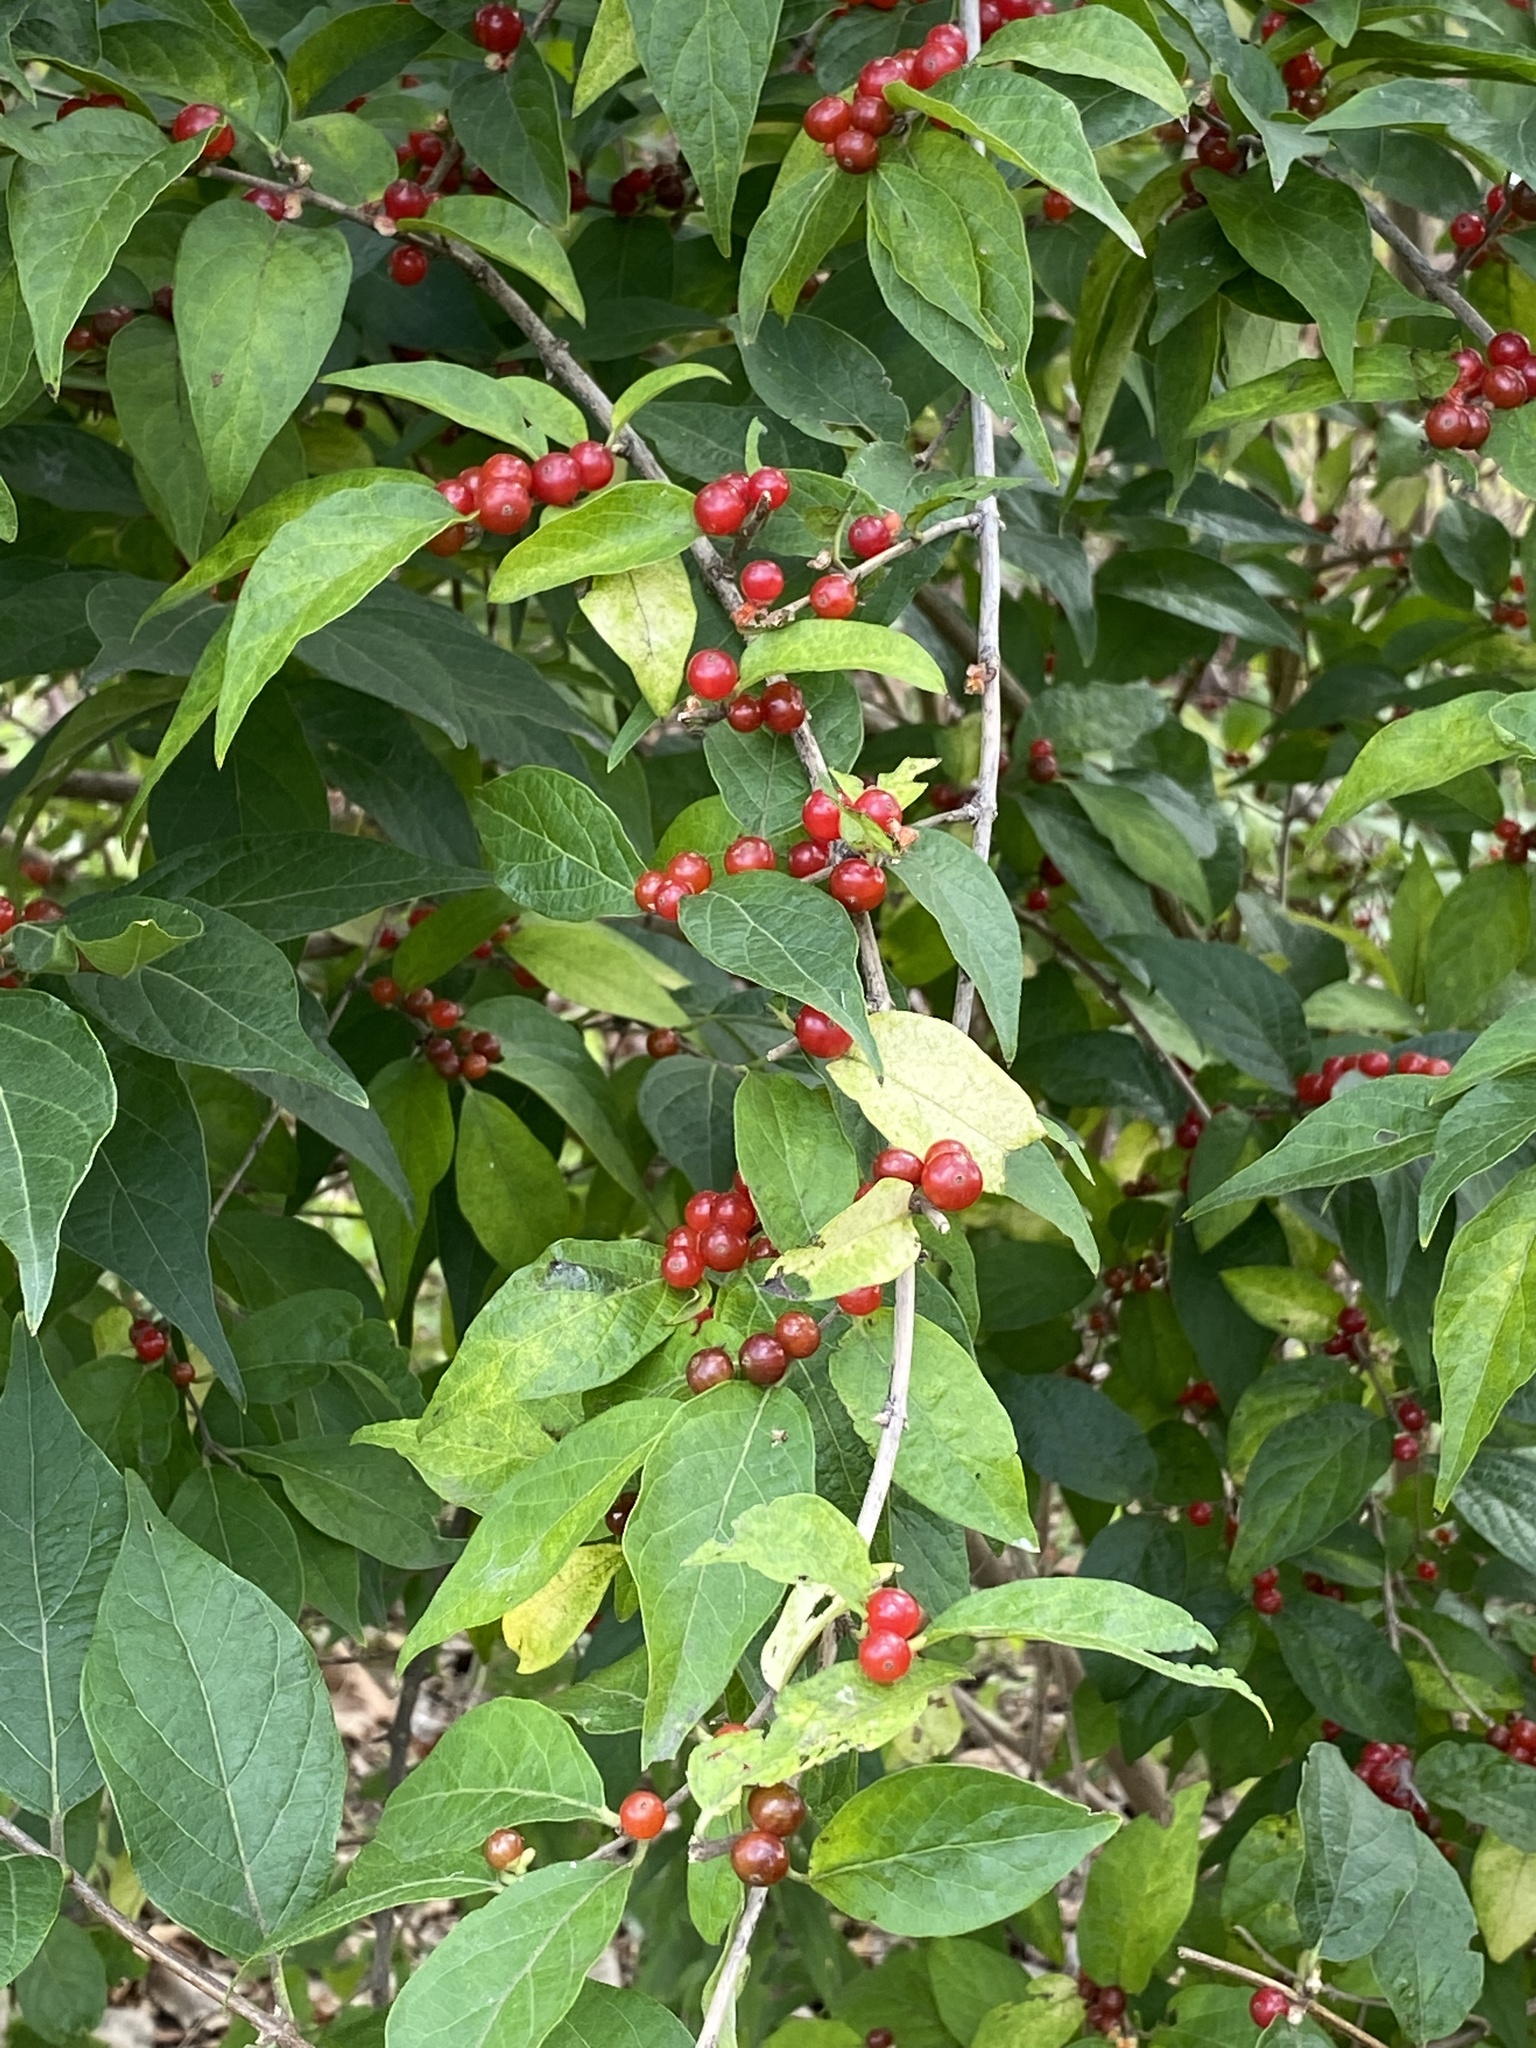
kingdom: Plantae
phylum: Tracheophyta
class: Magnoliopsida
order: Dipsacales
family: Caprifoliaceae
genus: Lonicera
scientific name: Lonicera maackii
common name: Amur honeysuckle
